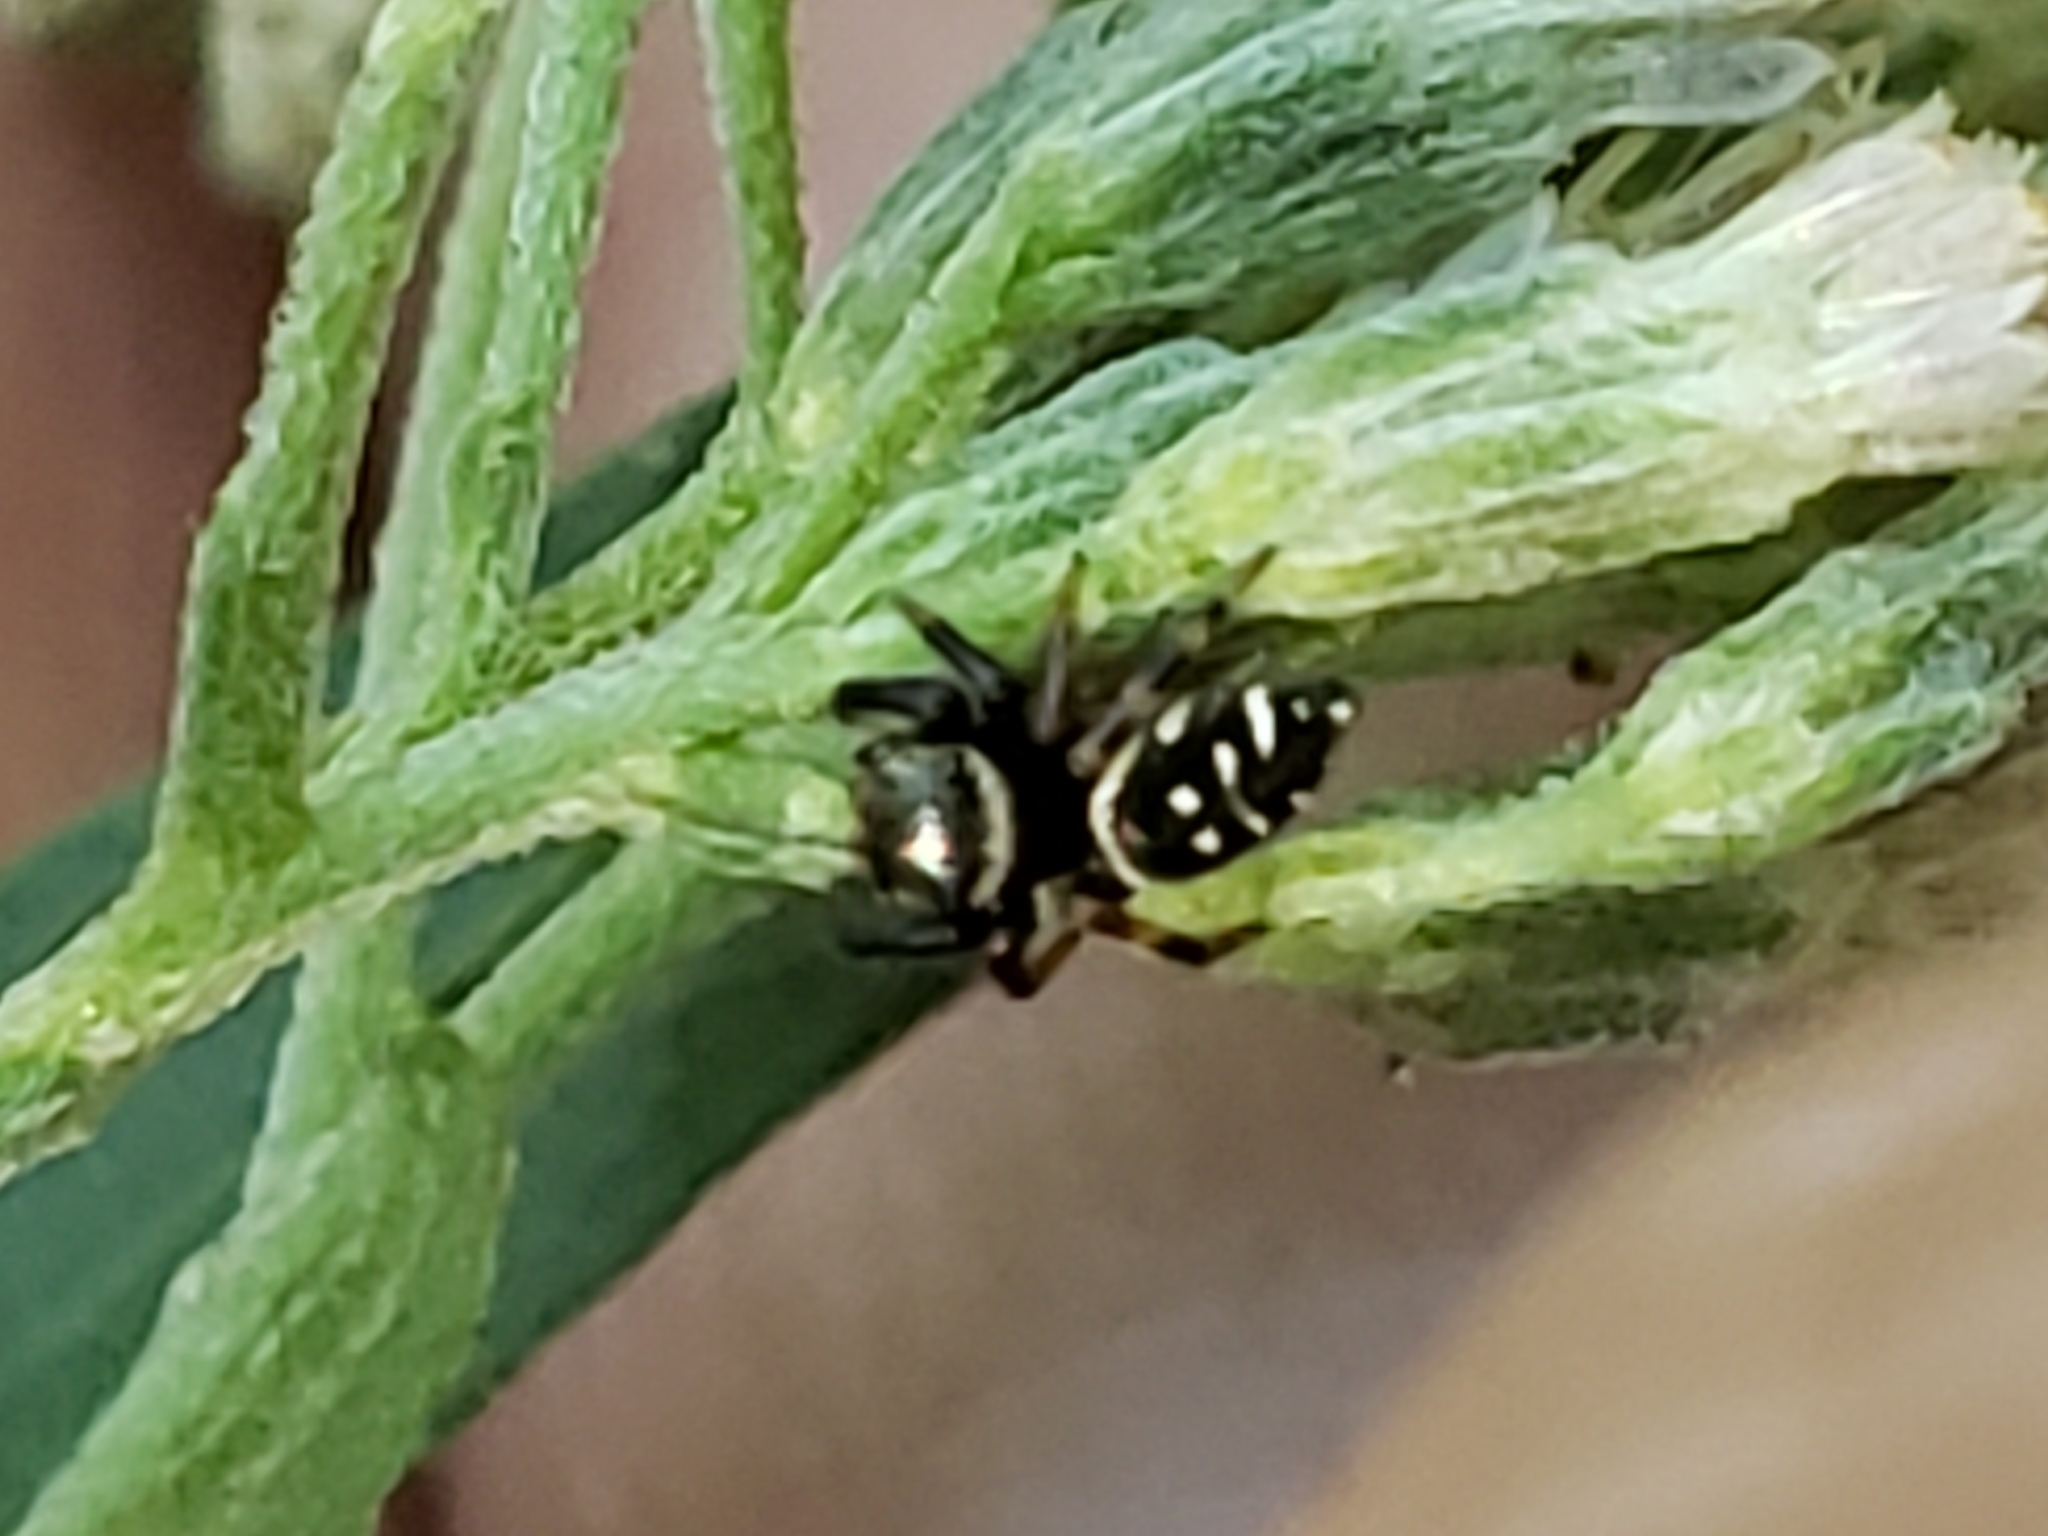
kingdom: Animalia
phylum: Arthropoda
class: Arachnida
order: Araneae
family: Salticidae
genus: Paraphidippus
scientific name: Paraphidippus aurantius
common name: Jumping spiders
